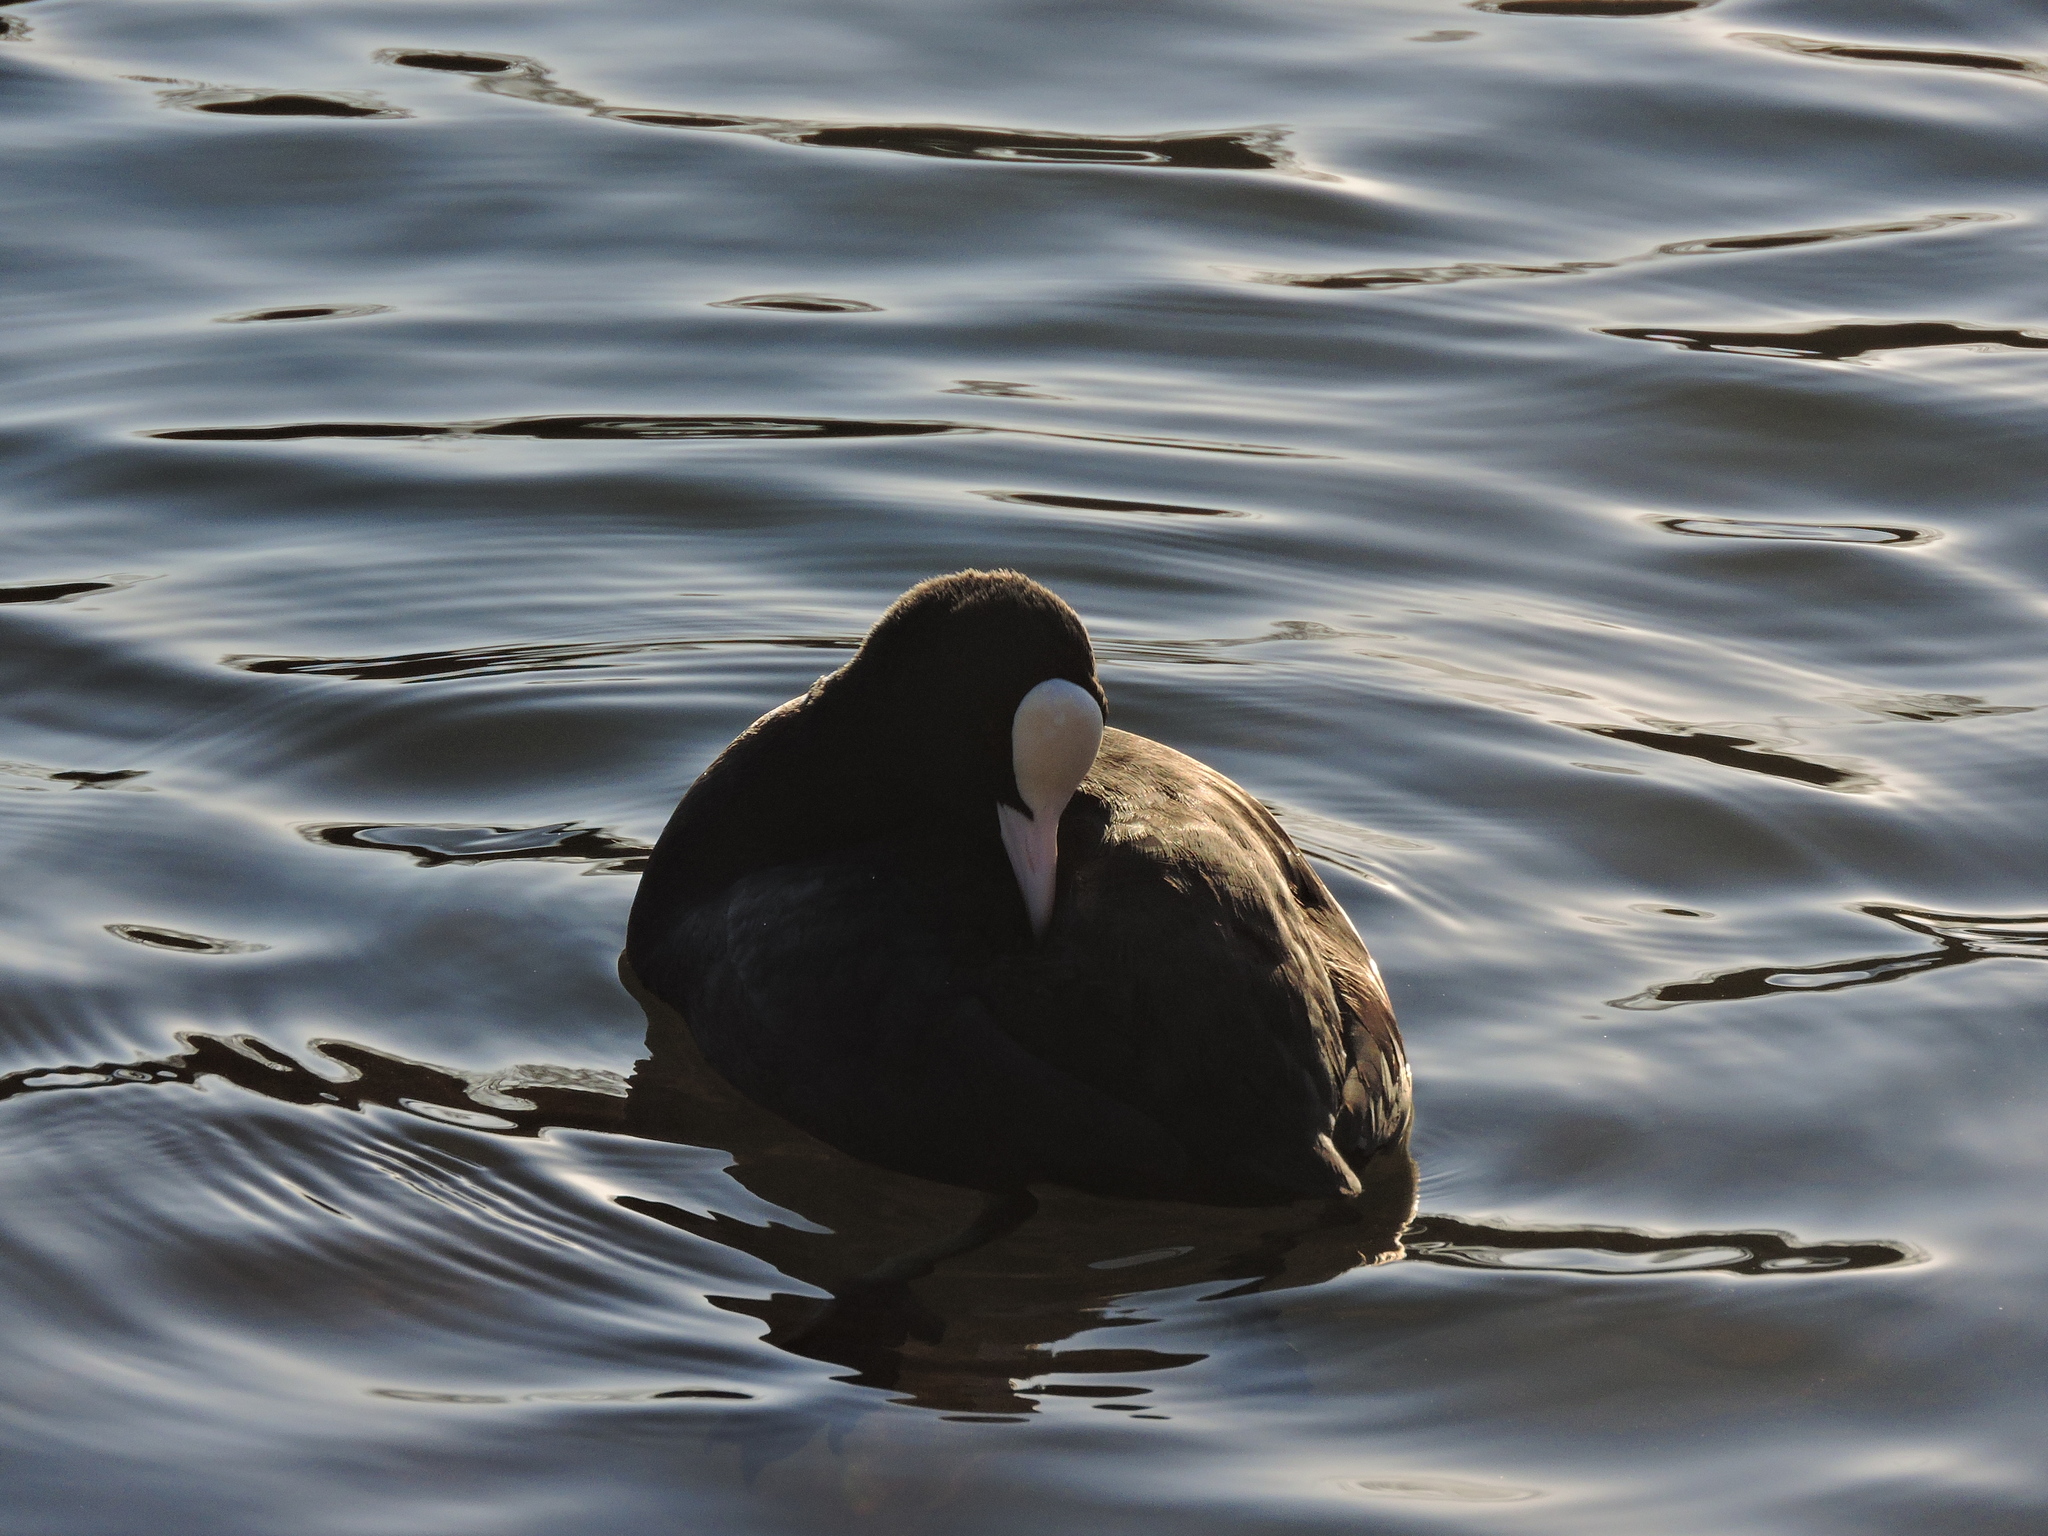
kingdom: Animalia
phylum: Chordata
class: Aves
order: Gruiformes
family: Rallidae
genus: Fulica
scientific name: Fulica atra
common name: Eurasian coot
